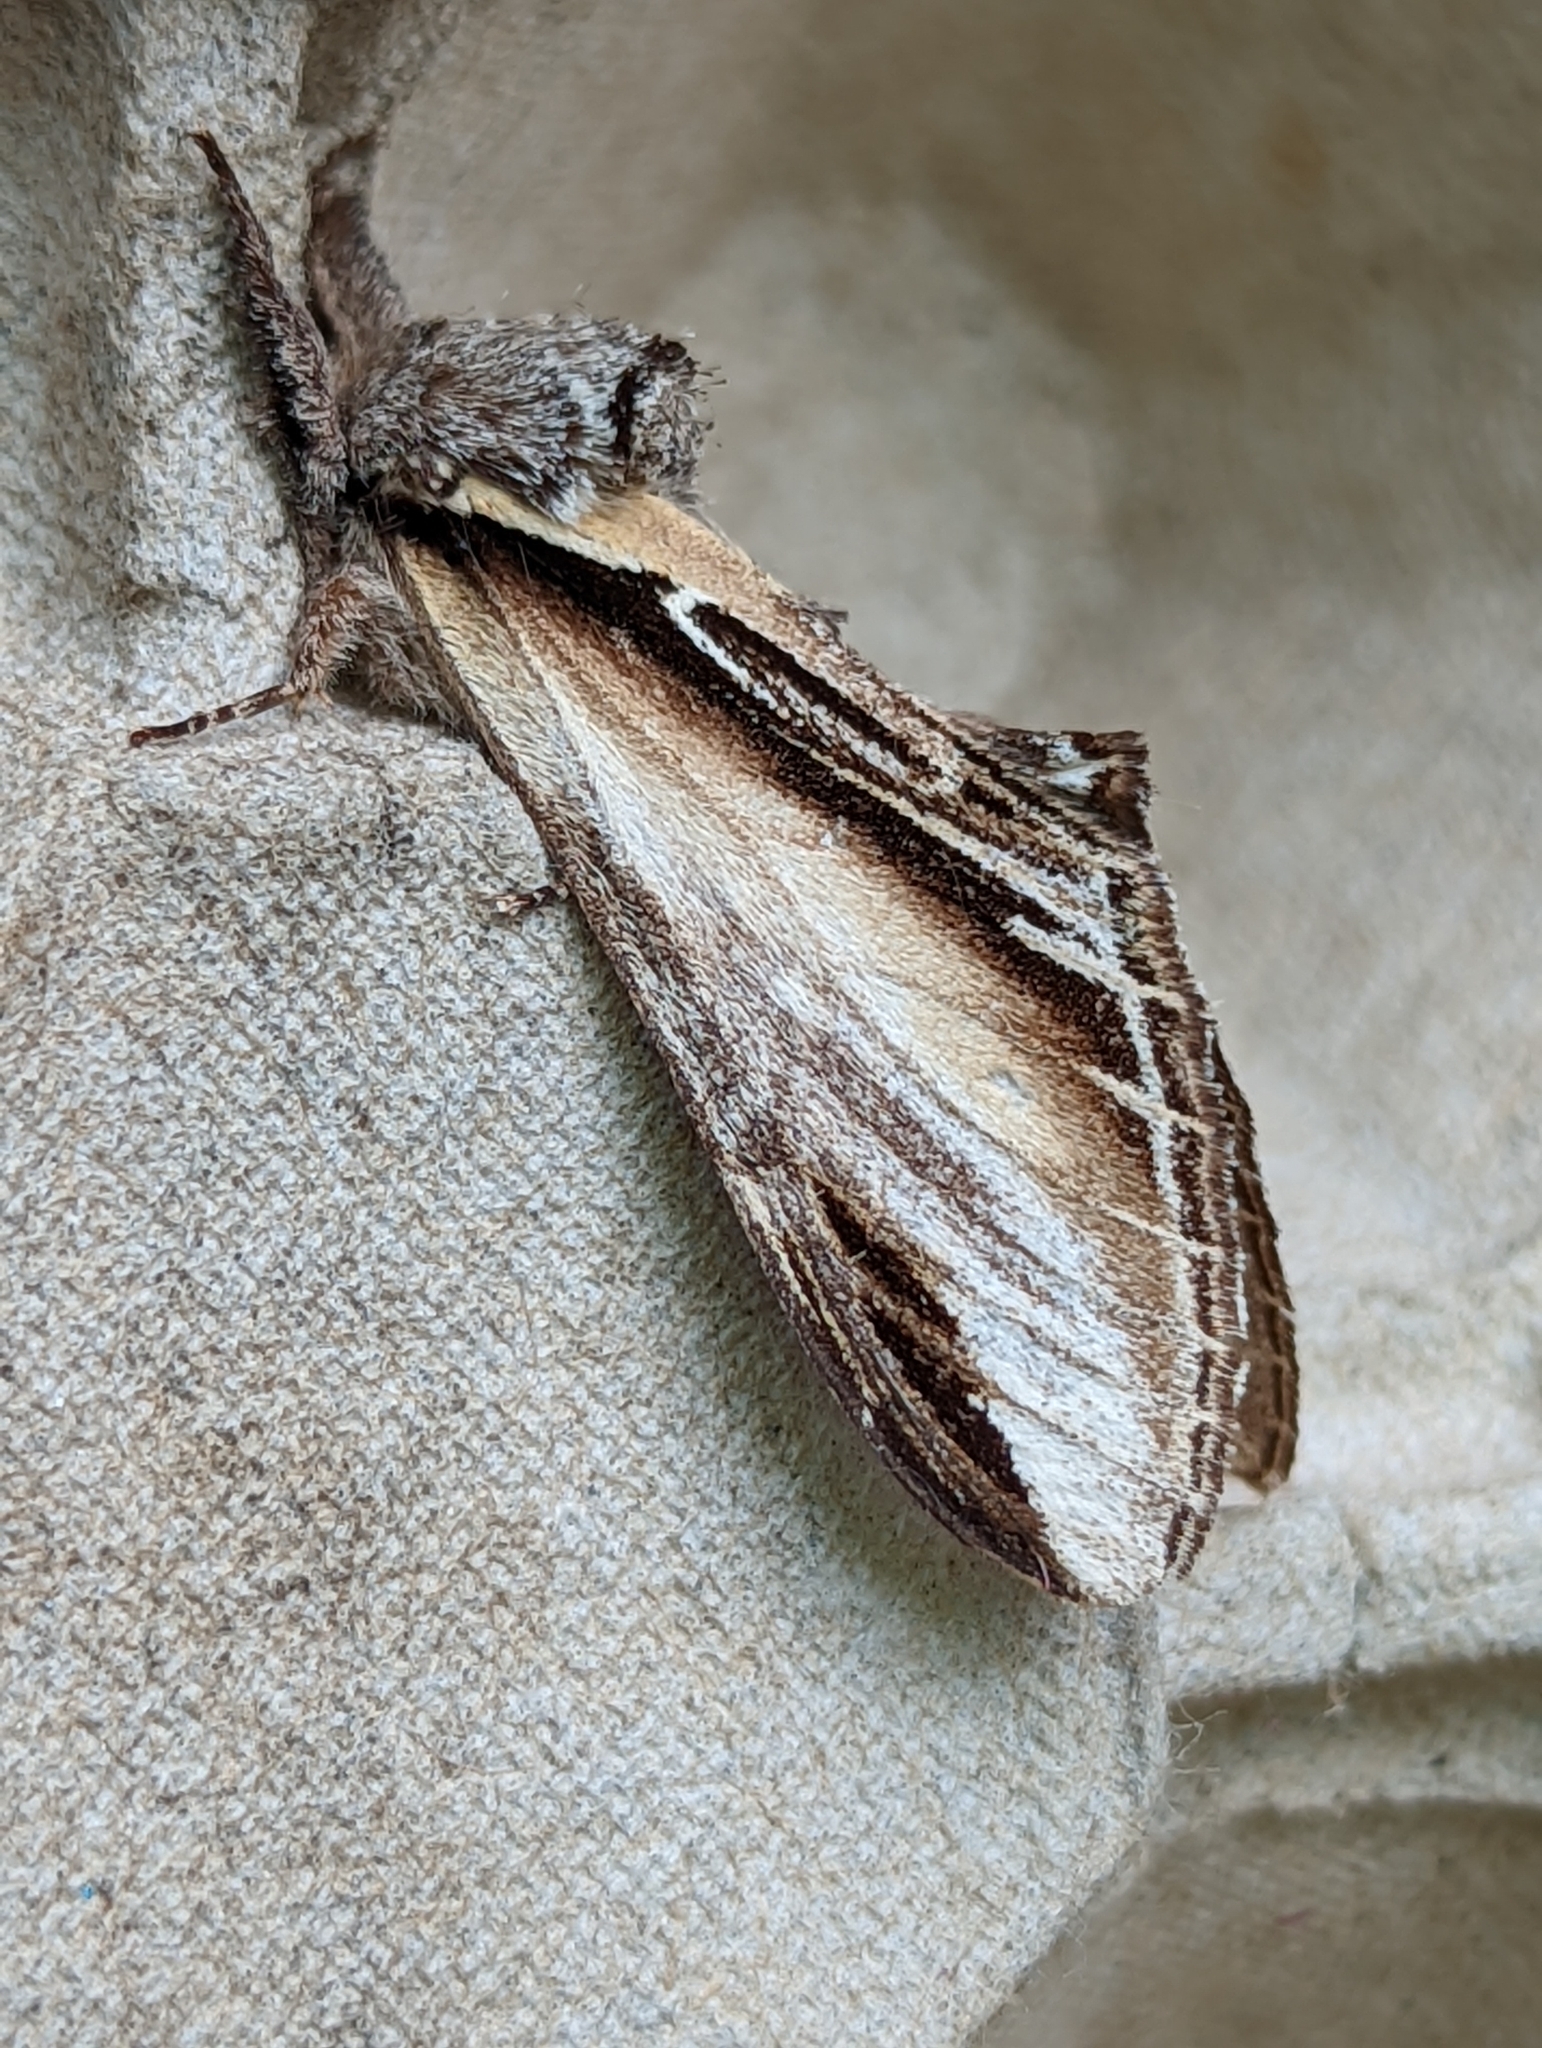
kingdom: Animalia
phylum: Arthropoda
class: Insecta
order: Lepidoptera
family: Notodontidae
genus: Pheosia
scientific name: Pheosia tremula
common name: Swallow prominent
